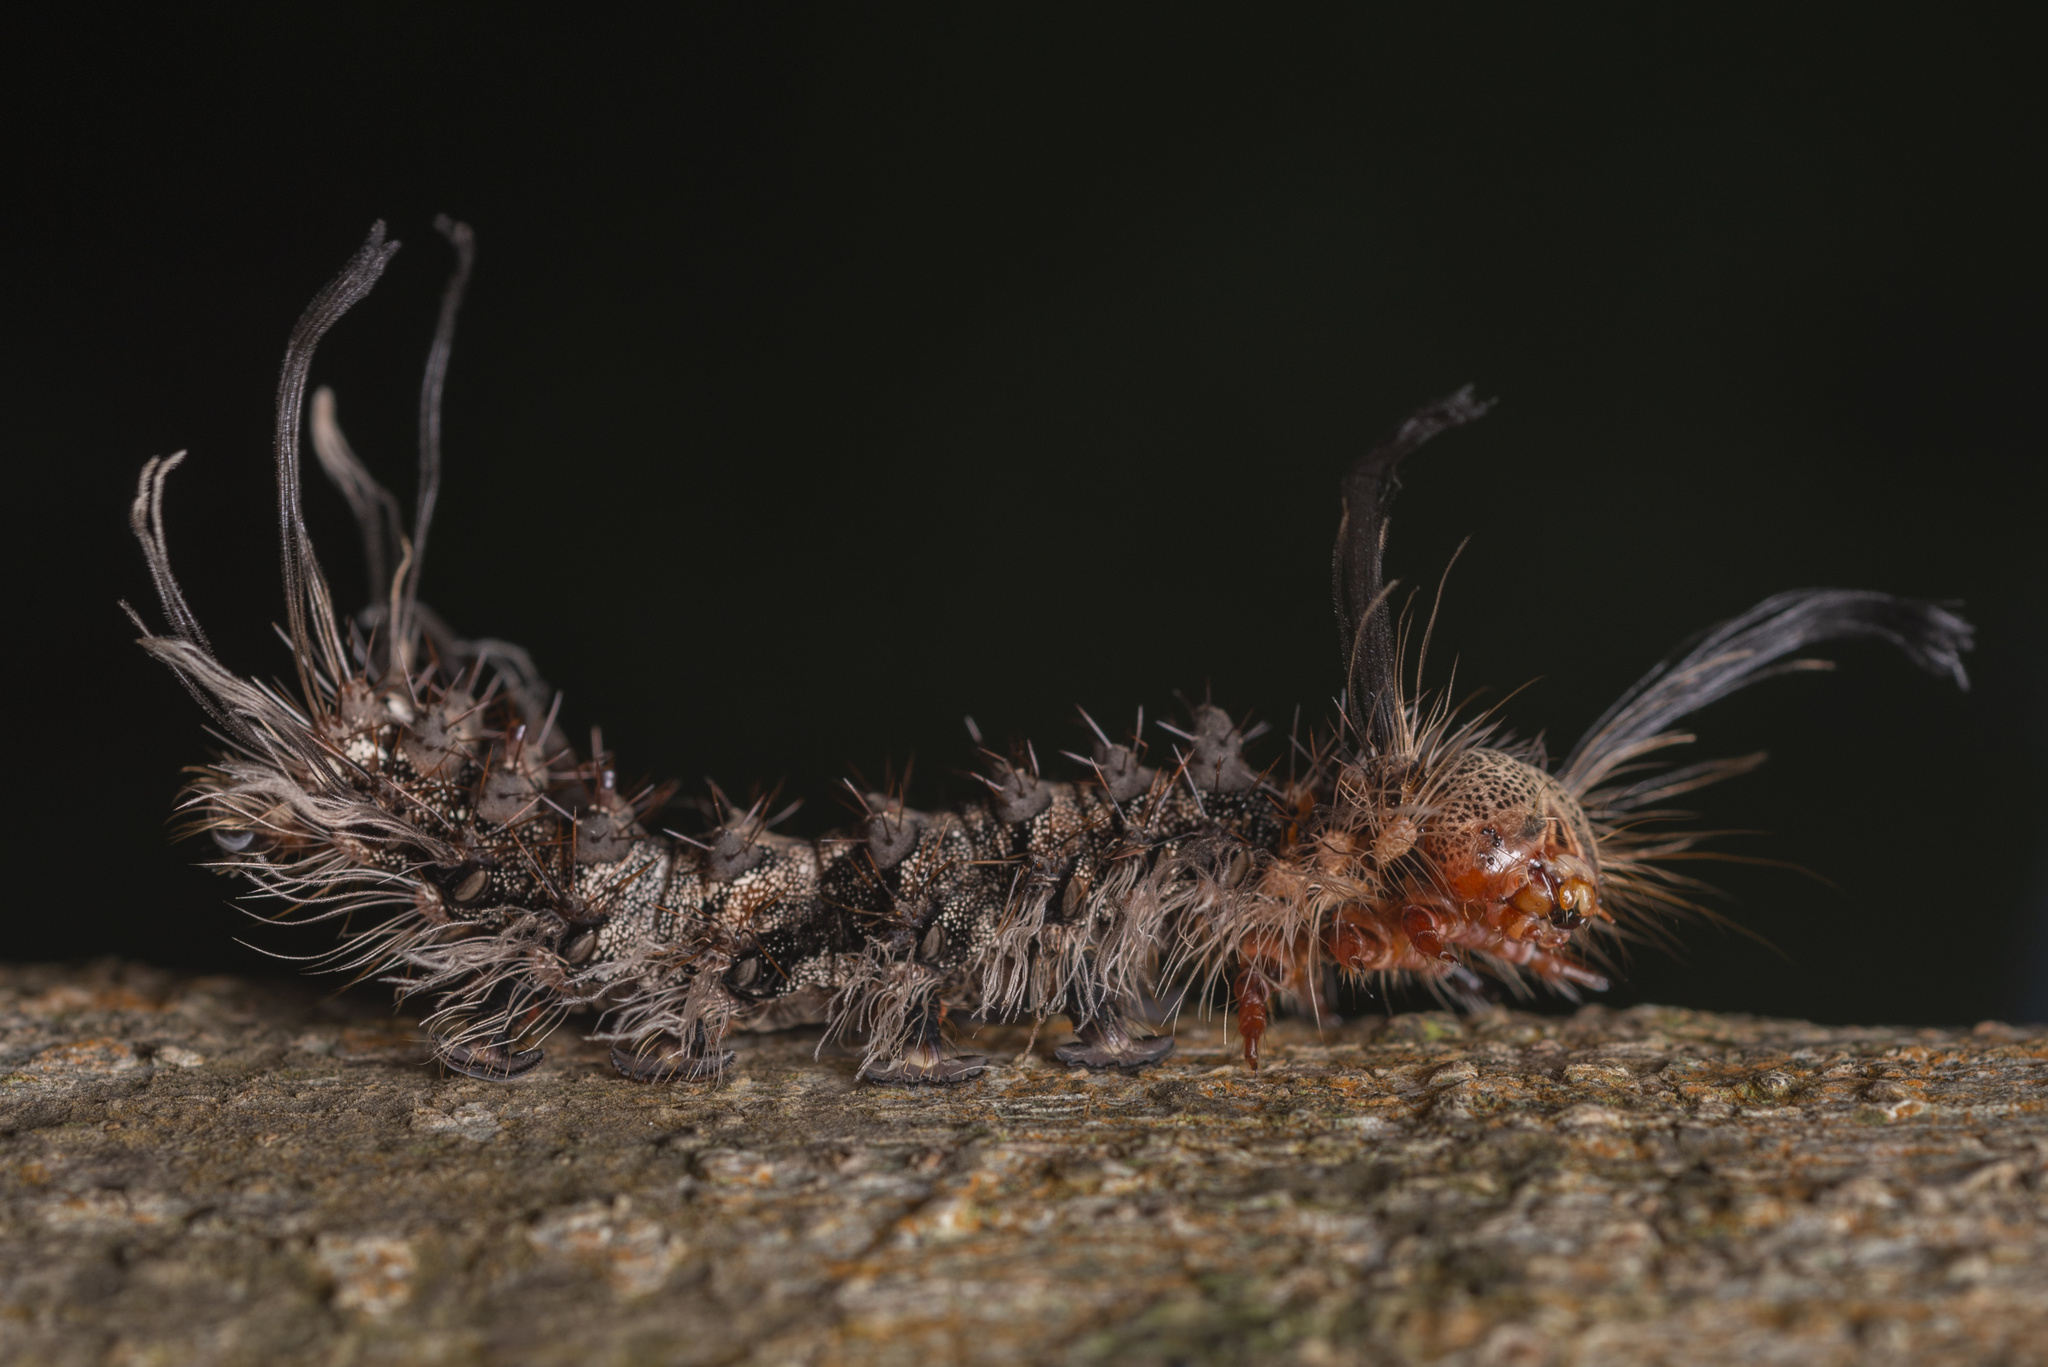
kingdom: Animalia
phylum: Arthropoda
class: Insecta
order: Lepidoptera
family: Erebidae
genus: Lymantria
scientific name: Lymantria mathura
